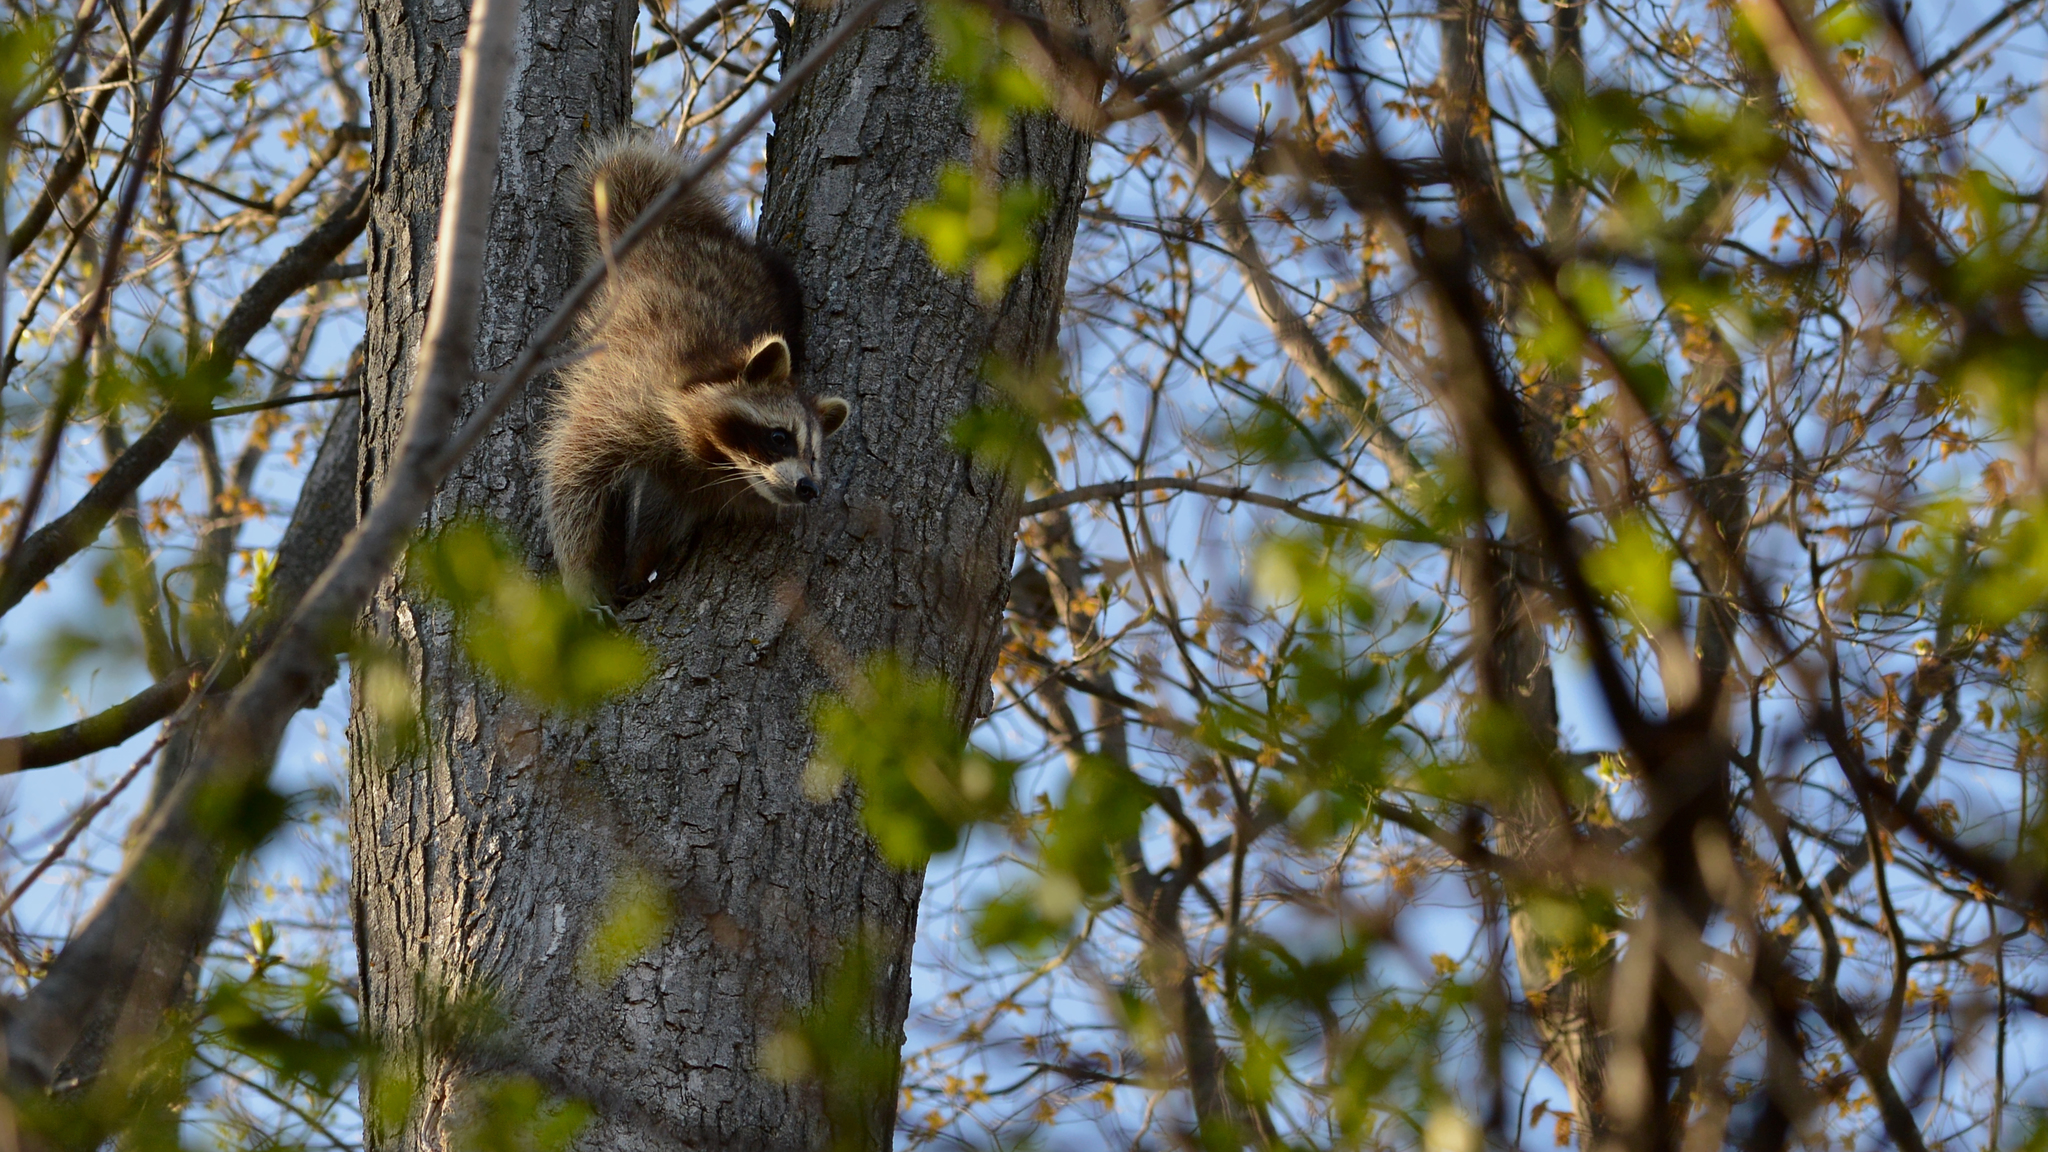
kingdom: Animalia
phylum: Chordata
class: Mammalia
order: Carnivora
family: Procyonidae
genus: Procyon
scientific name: Procyon lotor
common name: Raccoon
